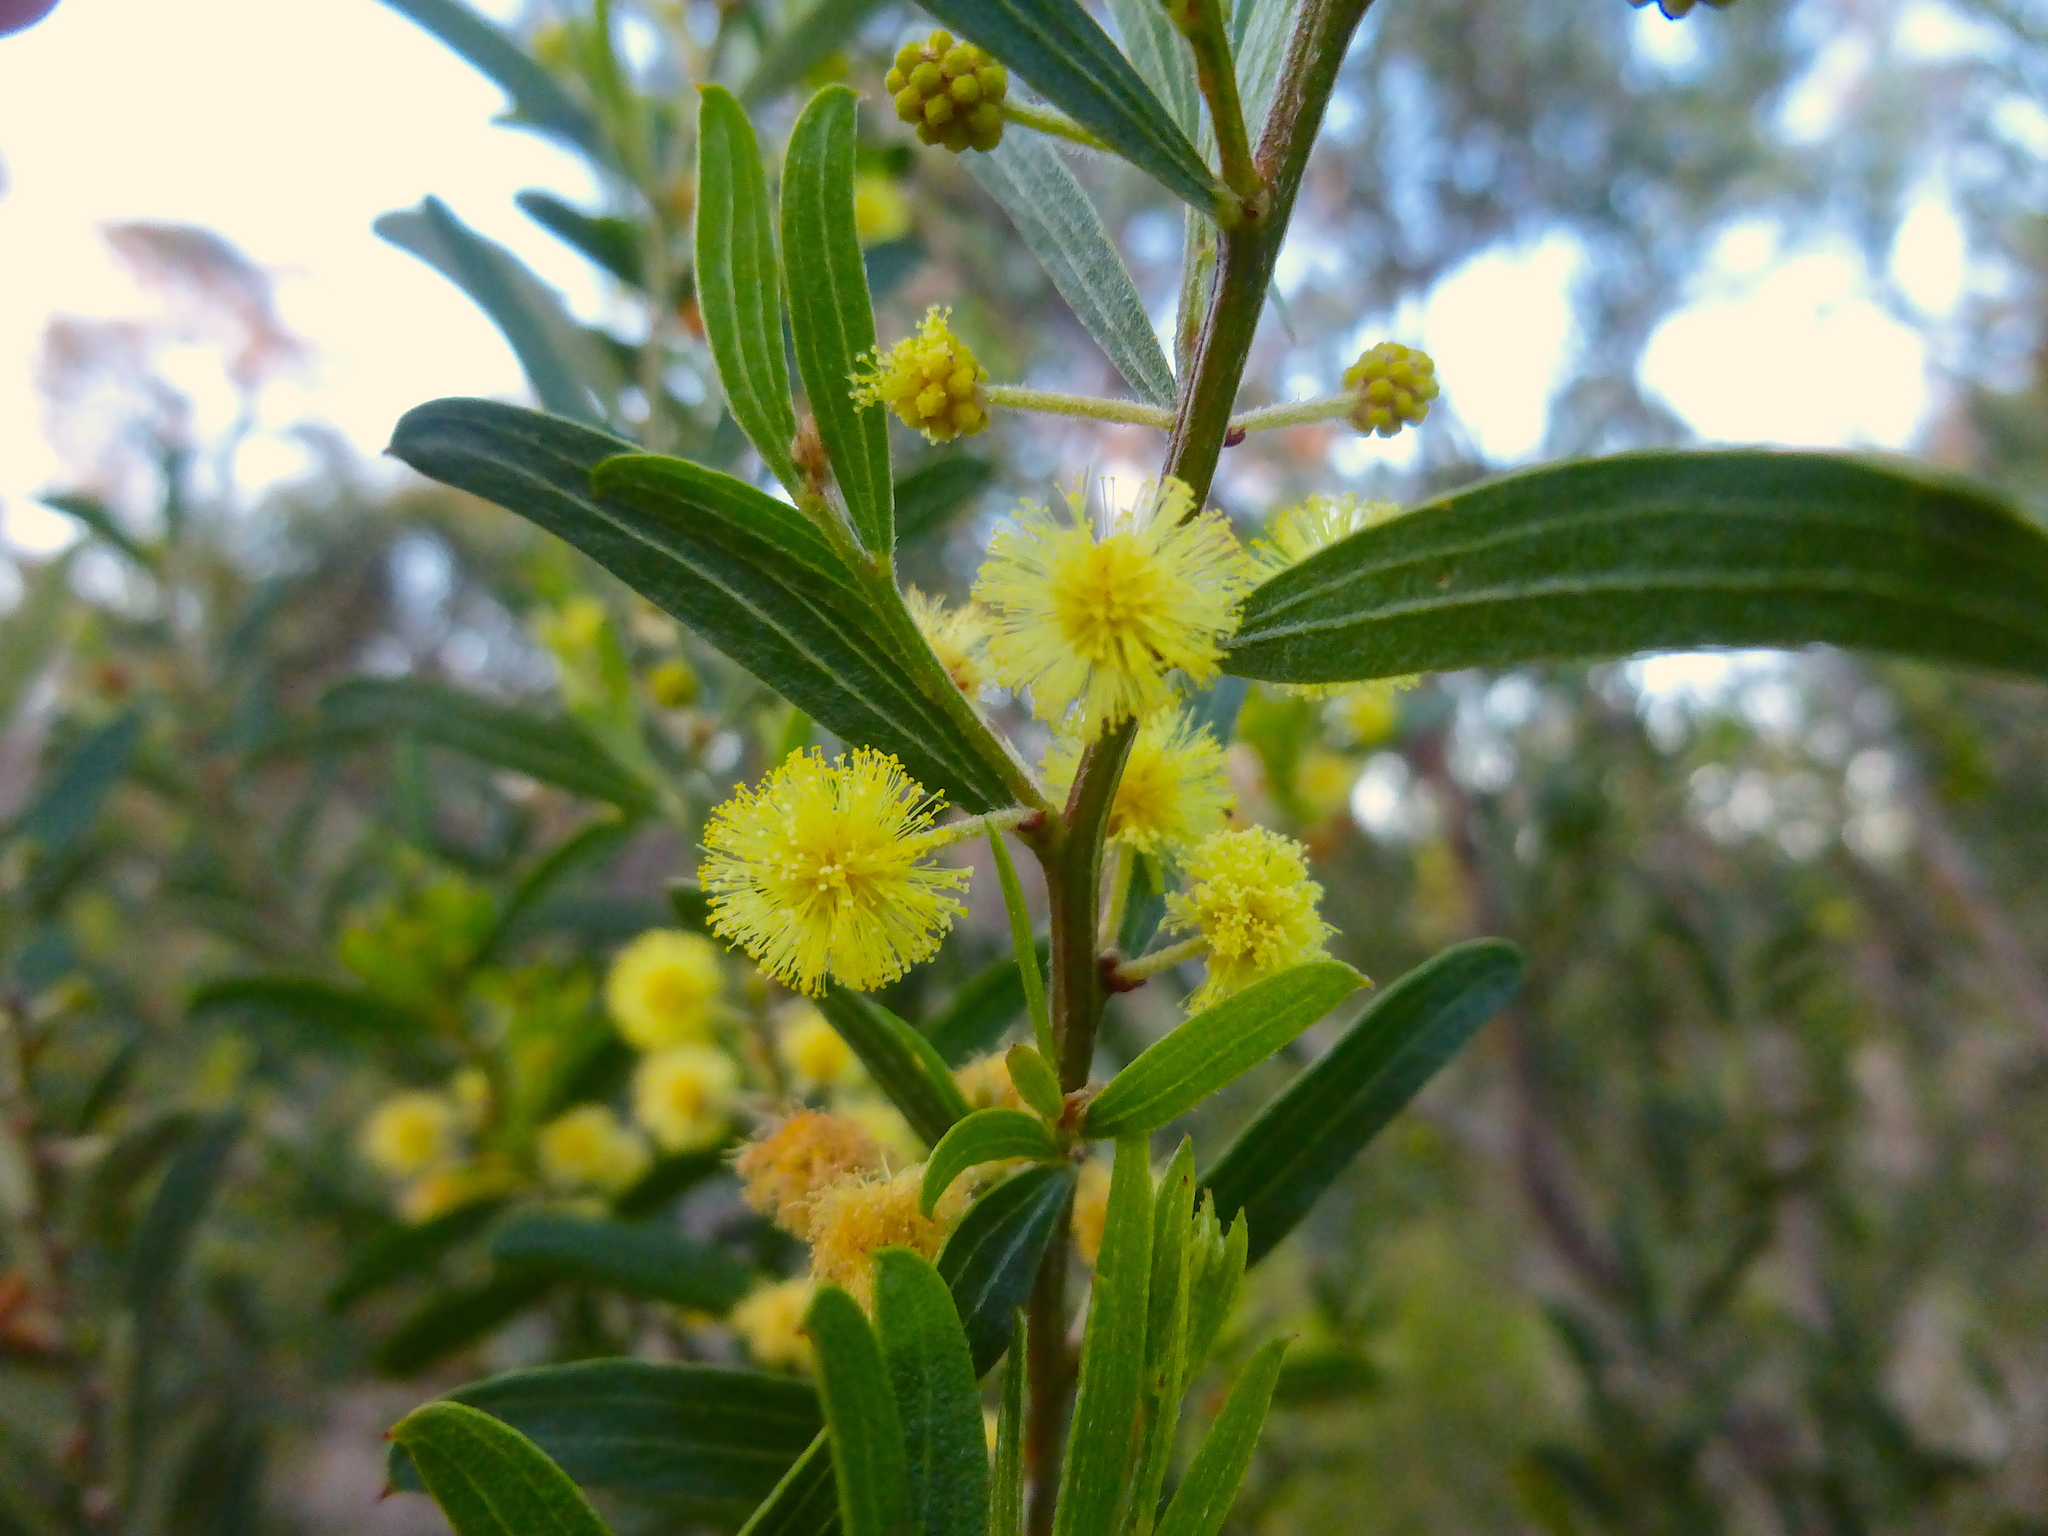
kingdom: Plantae
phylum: Tracheophyta
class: Magnoliopsida
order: Fabales
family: Fabaceae
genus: Acacia
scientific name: Acacia rostriformis
